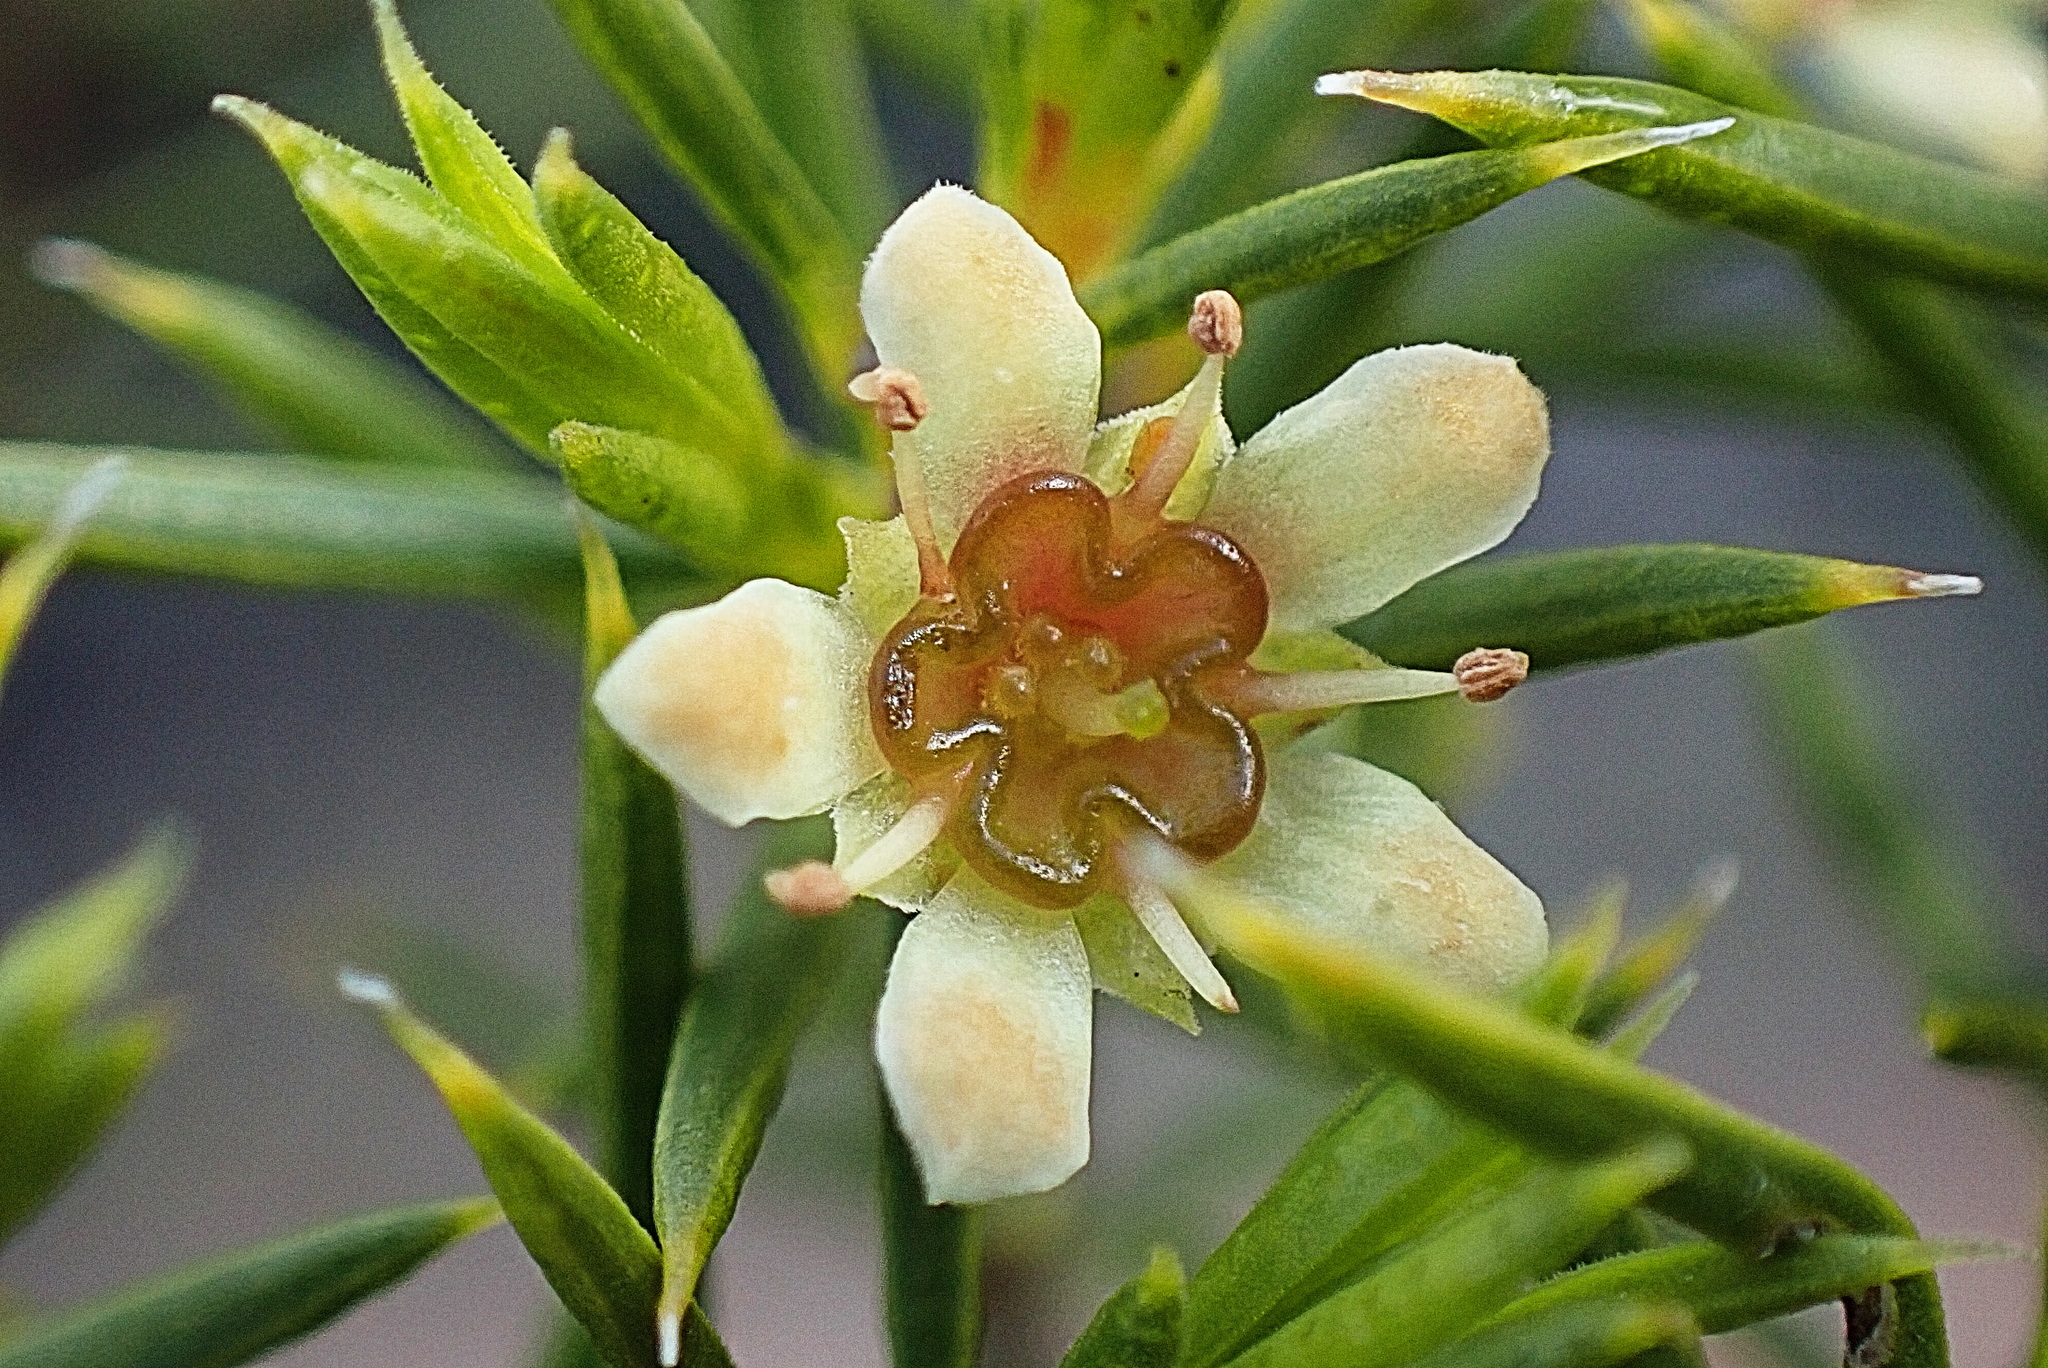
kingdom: Plantae
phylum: Tracheophyta
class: Magnoliopsida
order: Sapindales
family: Rutaceae
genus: Diosma
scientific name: Diosma acmaeophylla
